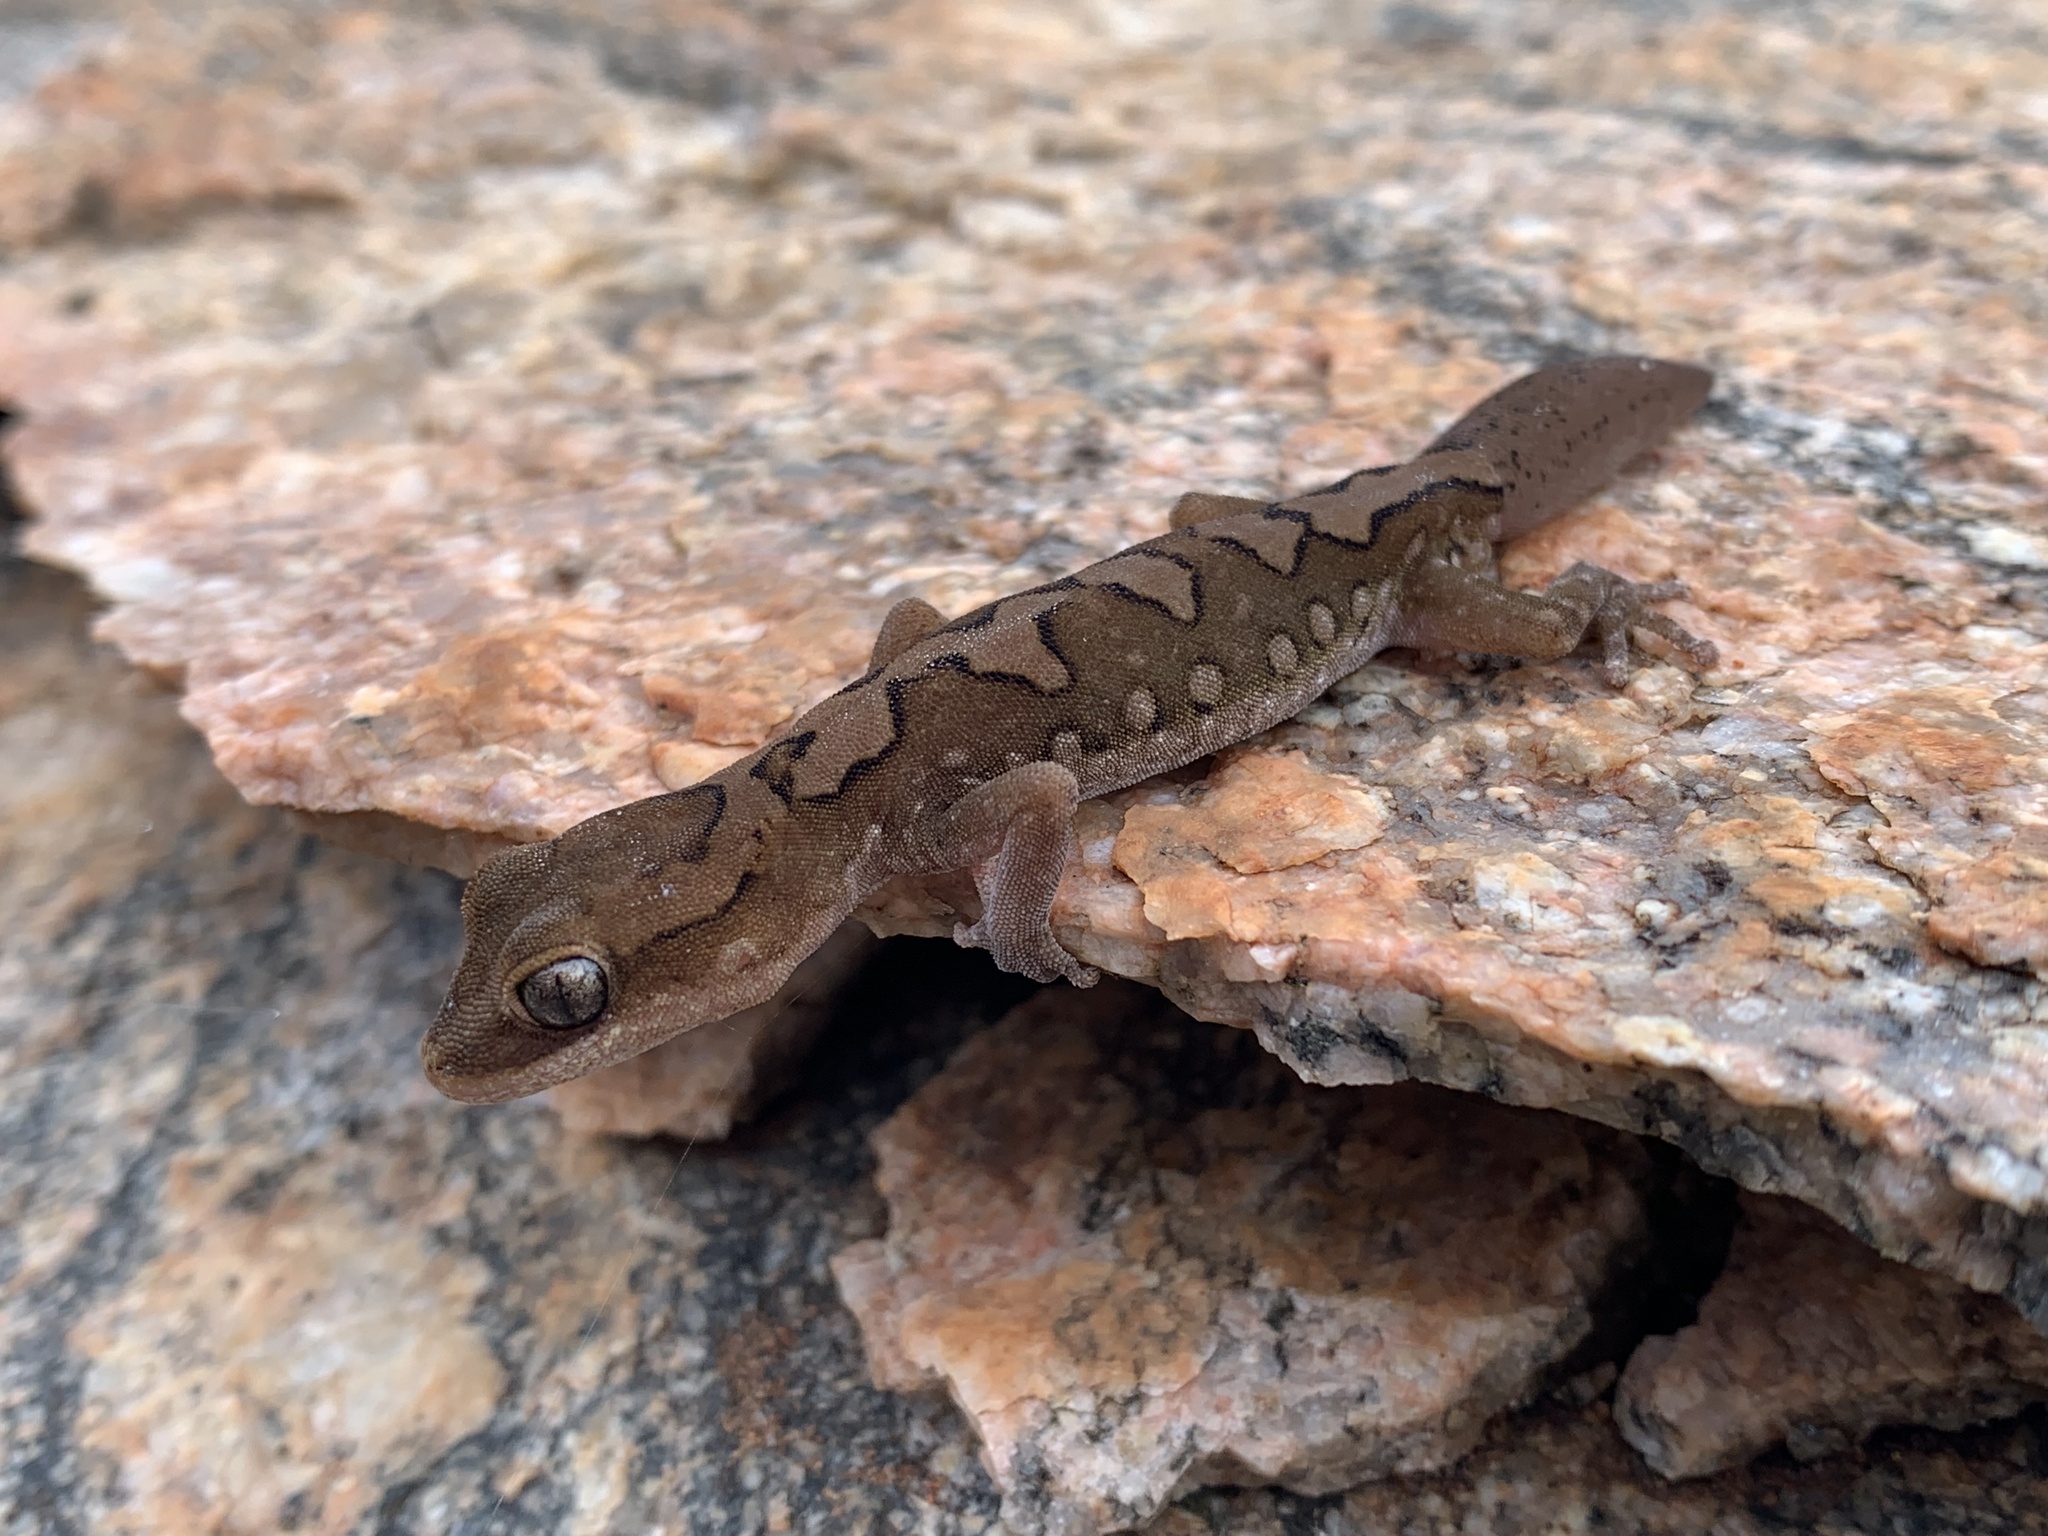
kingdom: Animalia
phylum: Chordata
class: Squamata
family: Diplodactylidae
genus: Diplodactylus
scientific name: Diplodactylus furcosus
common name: Ranges stone gecko
